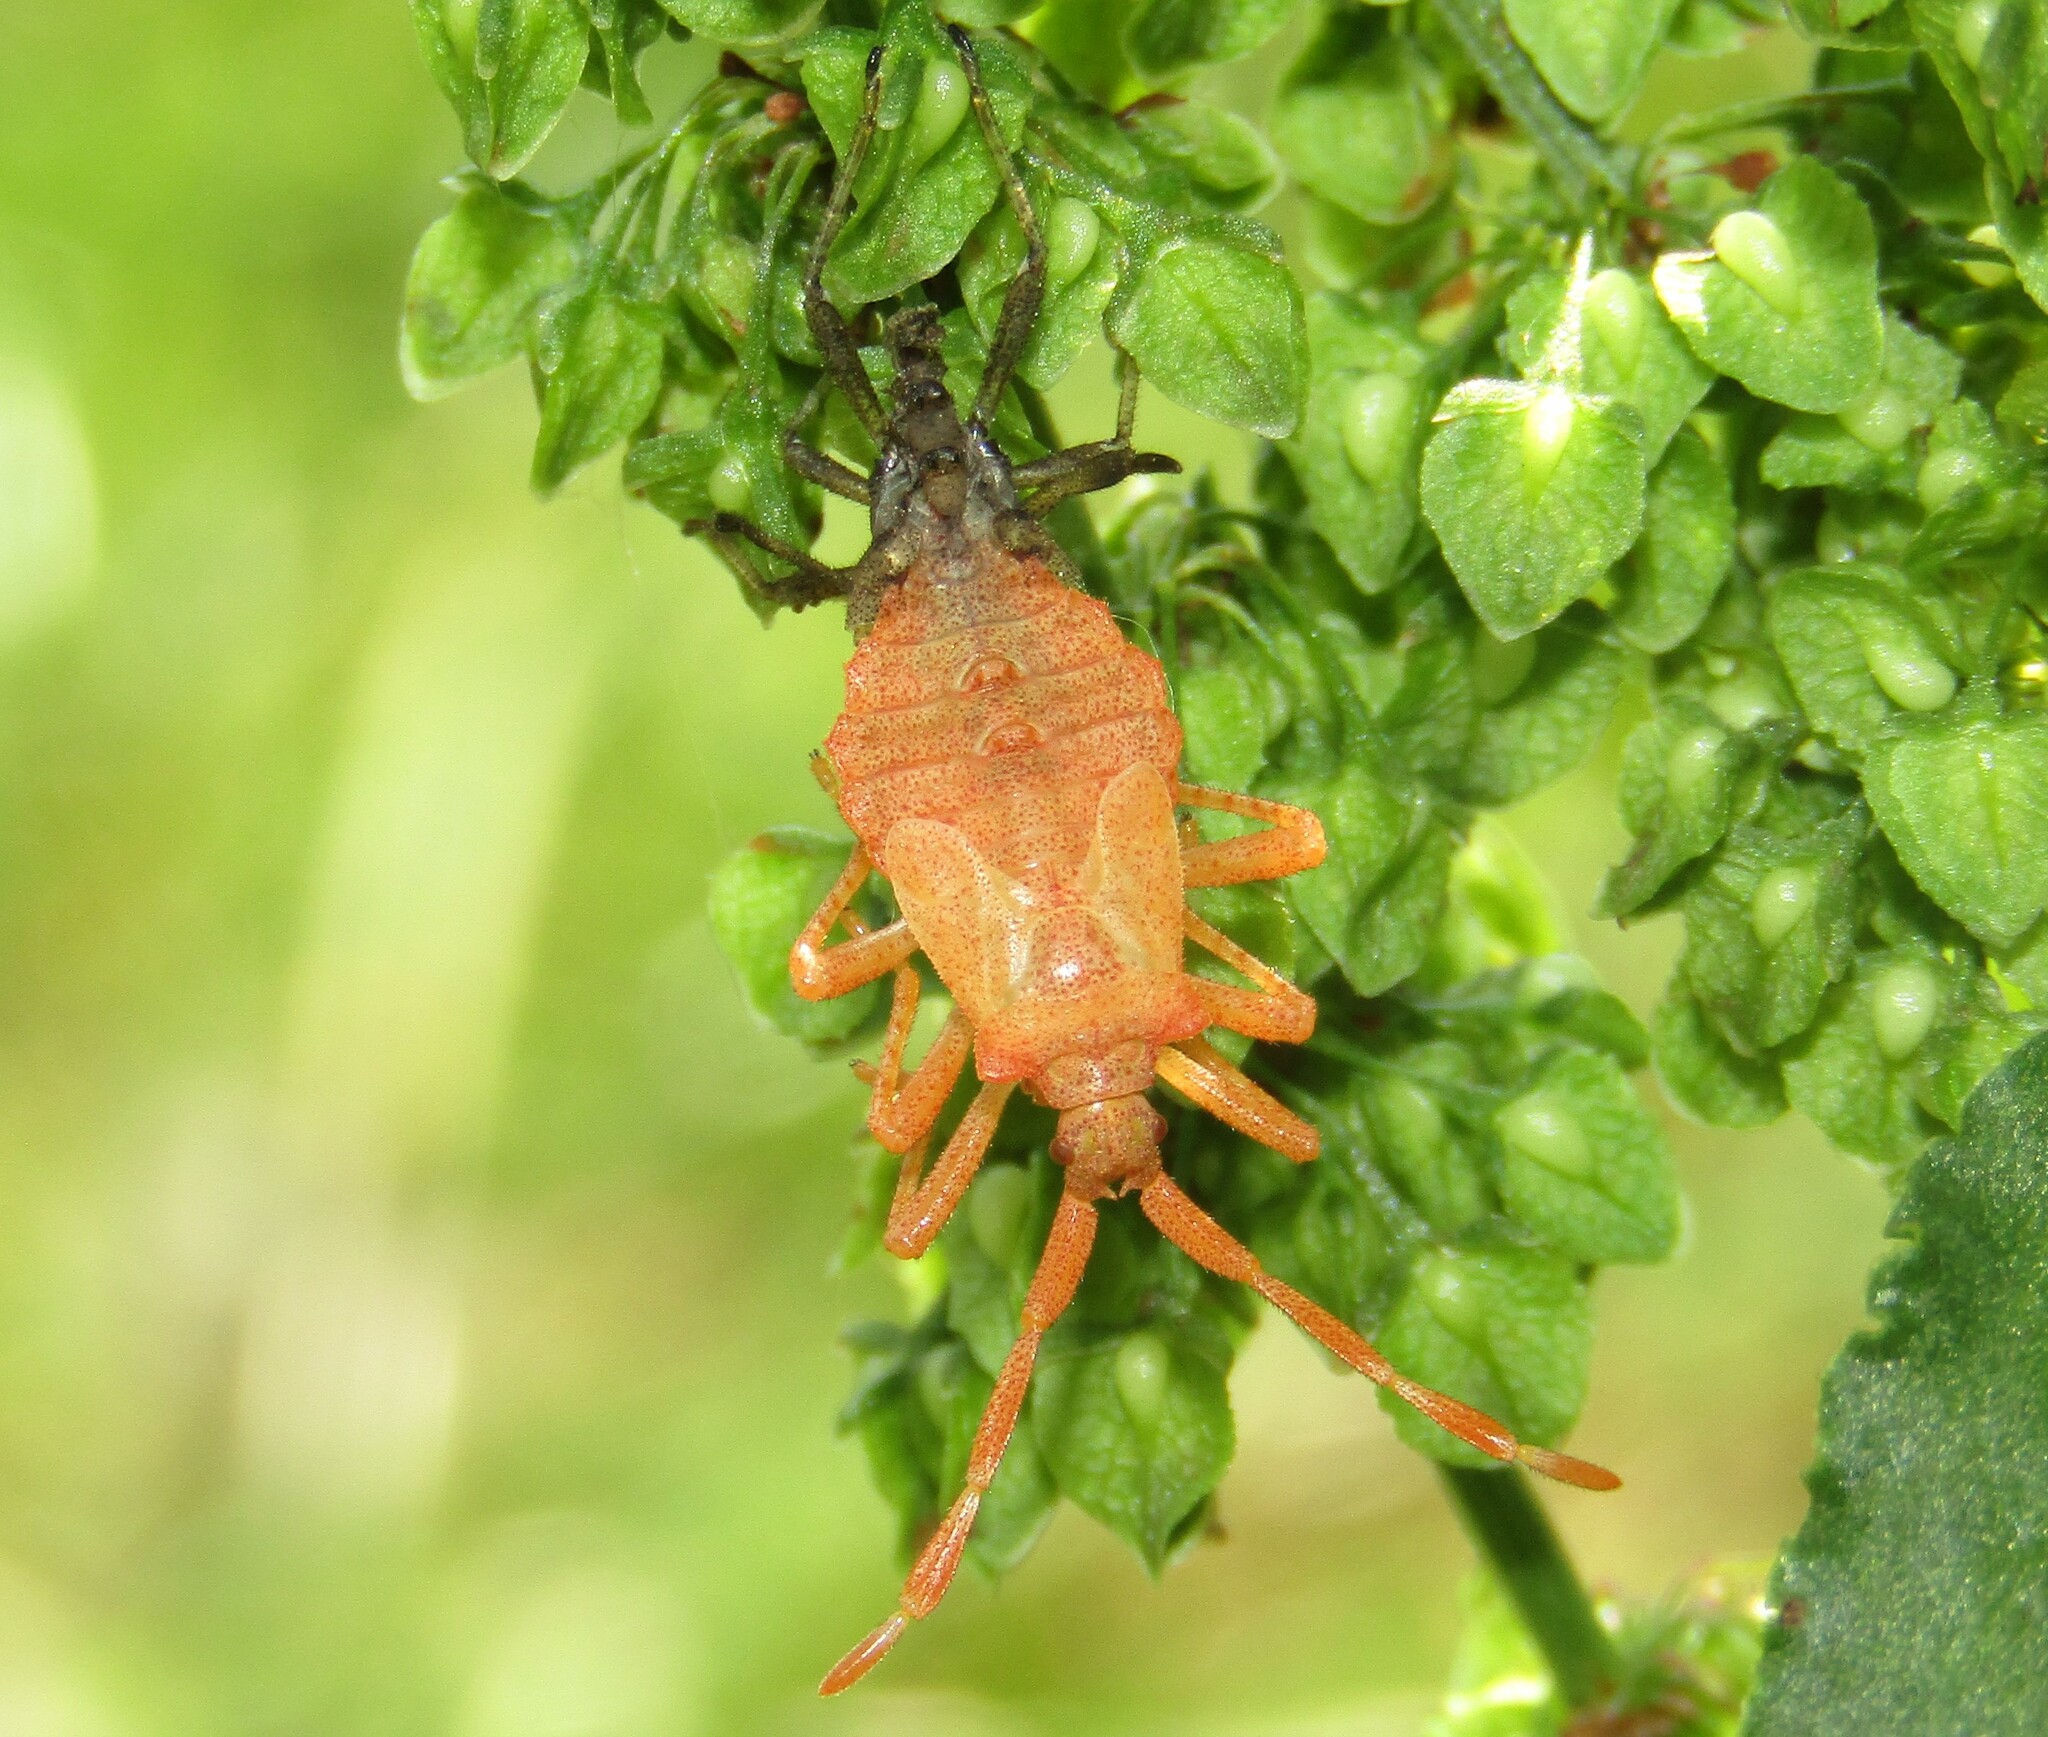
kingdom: Animalia
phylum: Arthropoda
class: Insecta
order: Hemiptera
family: Coreidae
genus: Coreus
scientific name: Coreus marginatus
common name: Dock bug
